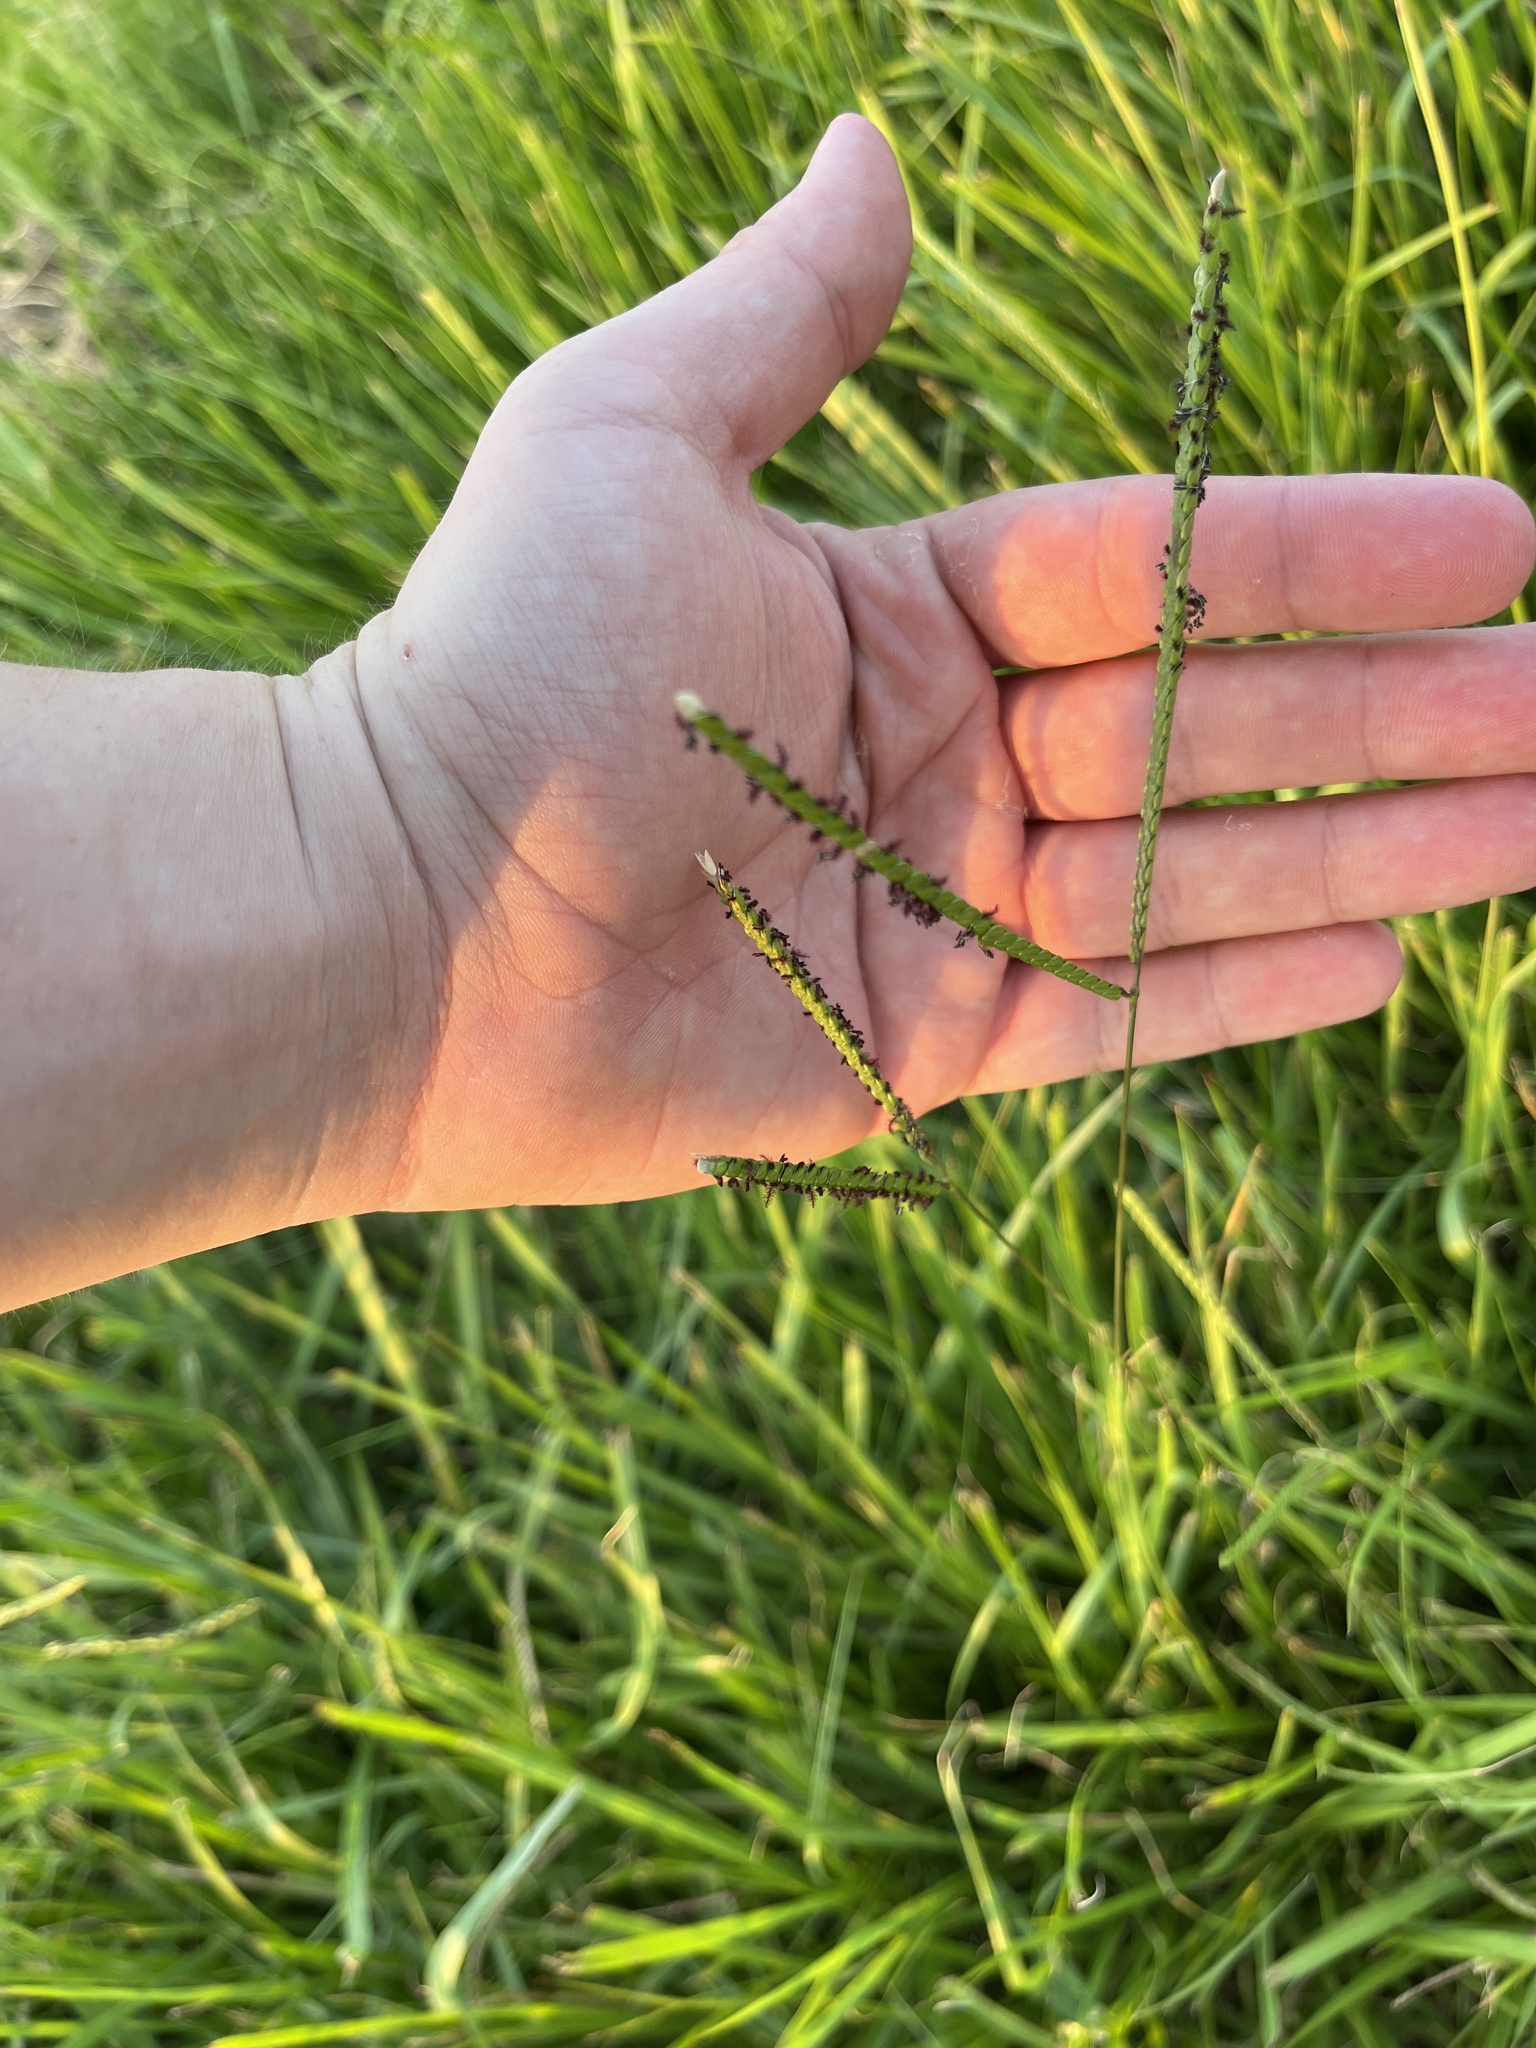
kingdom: Plantae
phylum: Tracheophyta
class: Liliopsida
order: Poales
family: Poaceae
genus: Paspalum
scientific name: Paspalum notatum
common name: Bahiagrass
